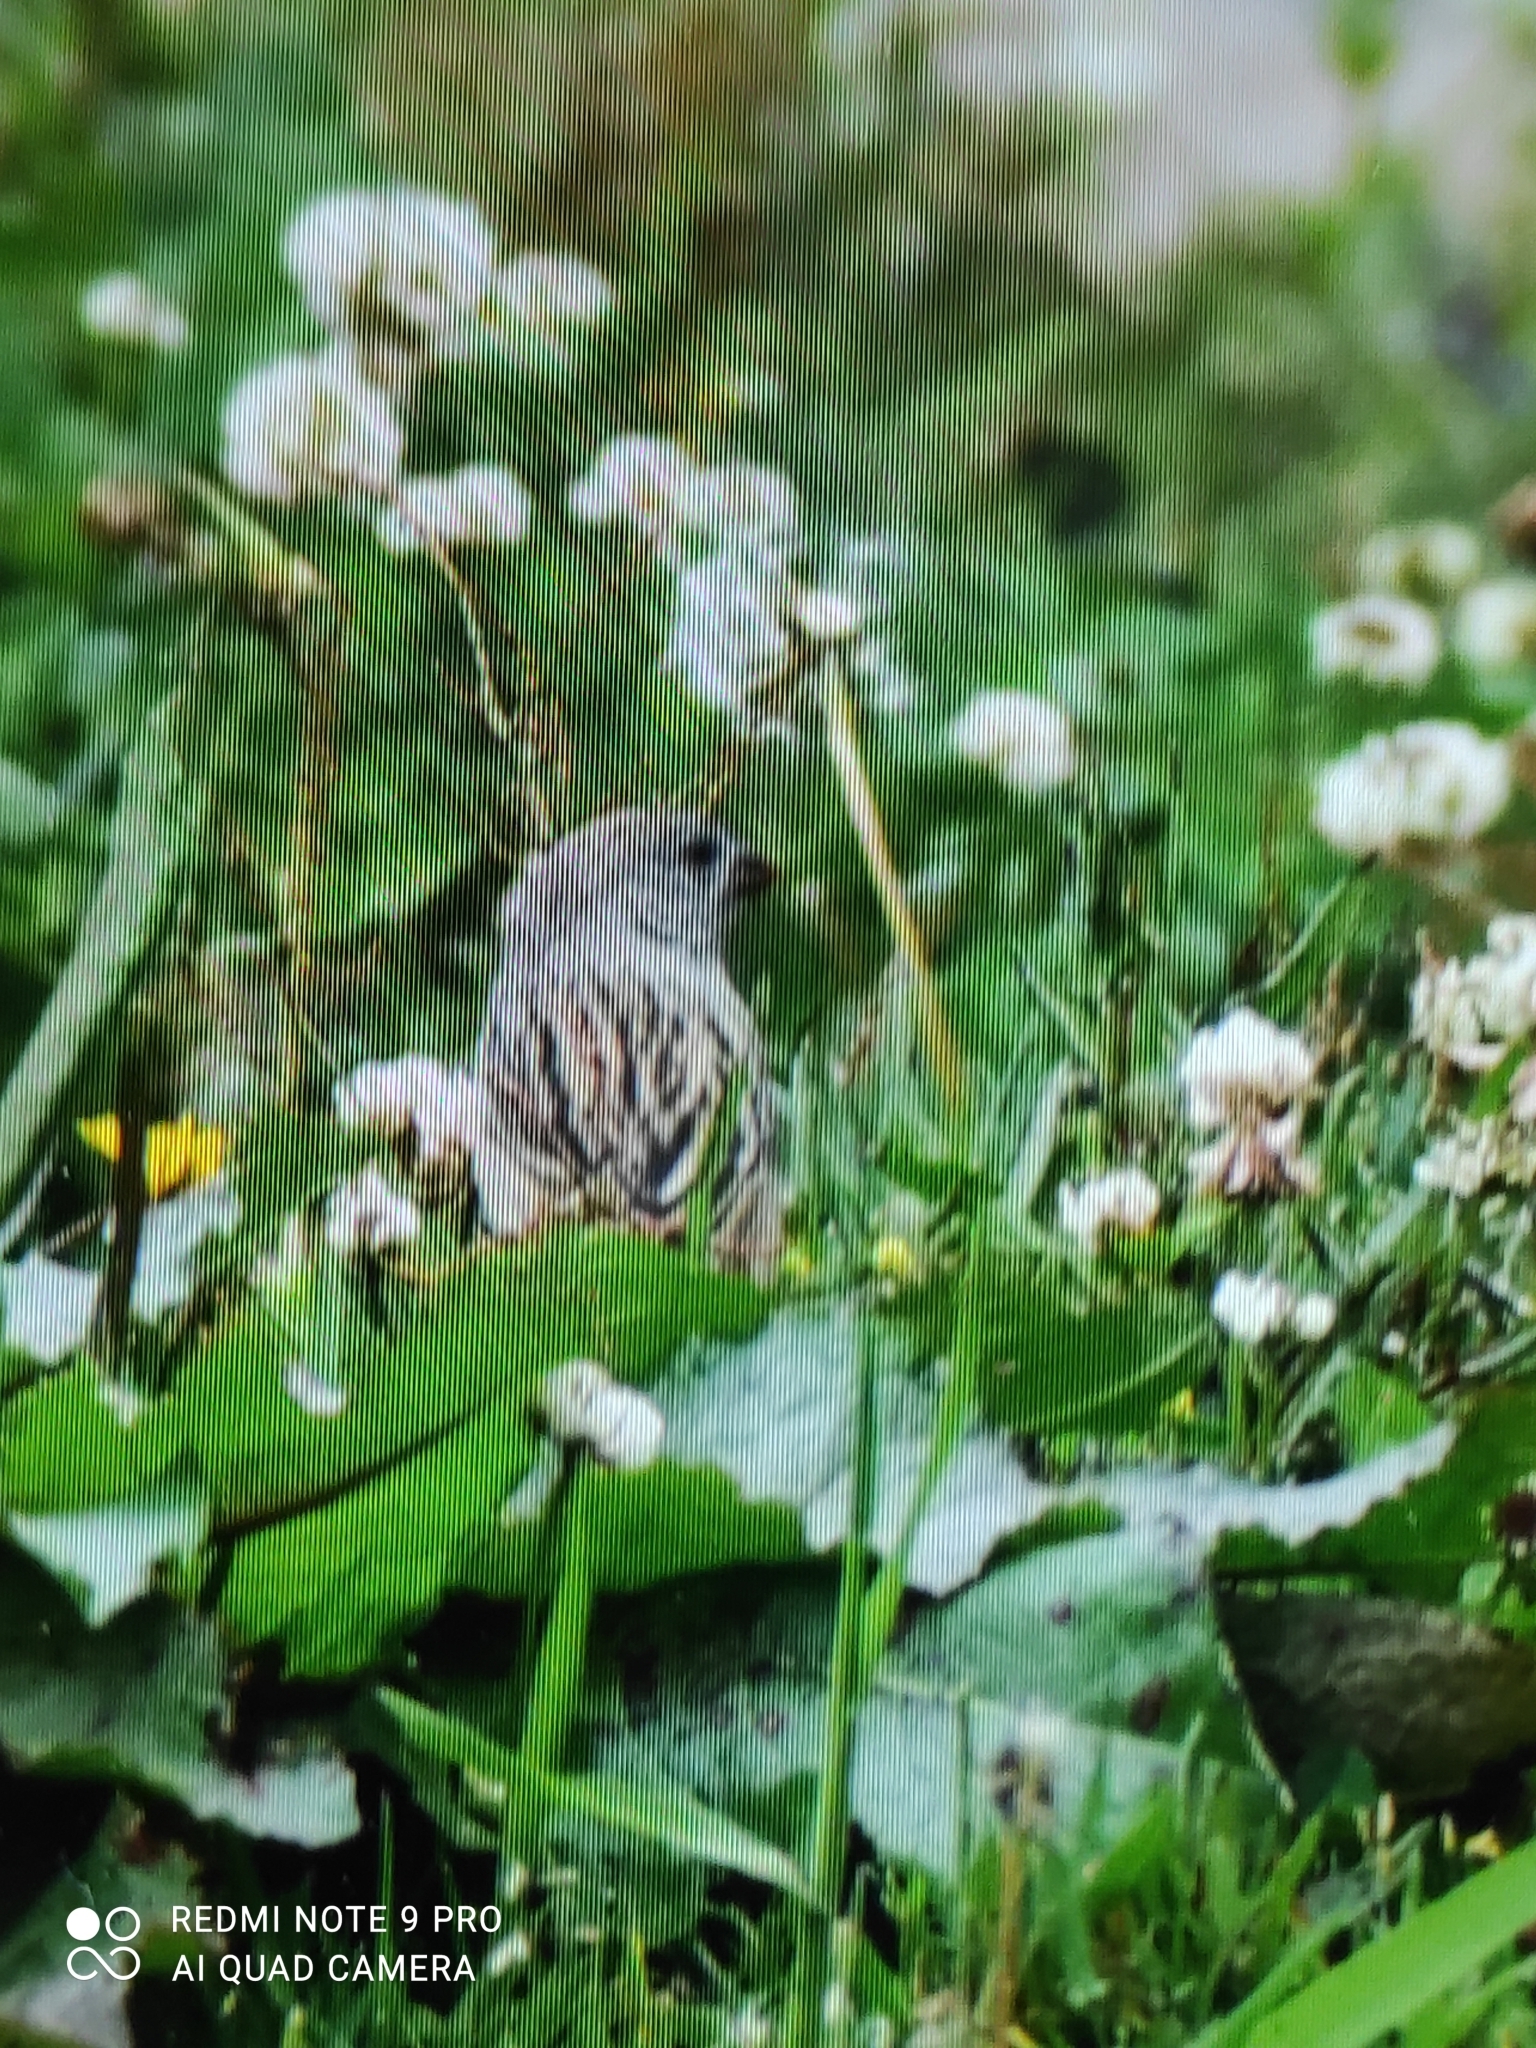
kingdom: Animalia
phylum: Chordata
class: Aves
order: Passeriformes
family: Fringillidae
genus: Spinus
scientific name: Spinus magellanicus
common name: Hooded siskin
